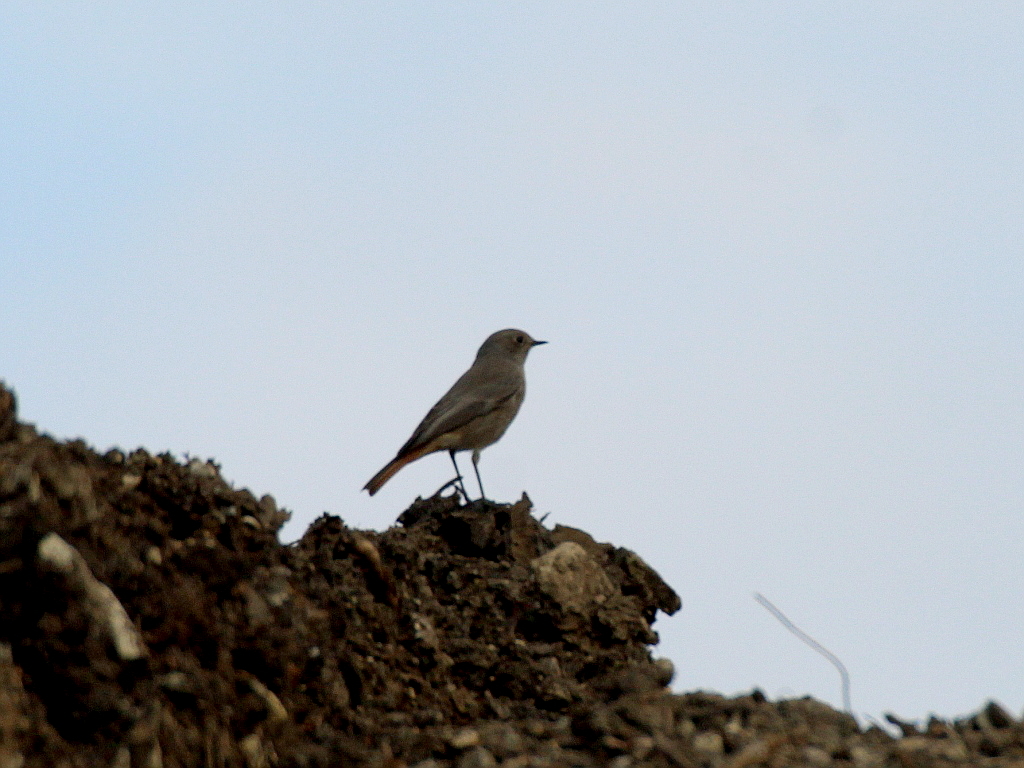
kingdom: Animalia
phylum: Chordata
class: Aves
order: Passeriformes
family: Muscicapidae
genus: Phoenicurus
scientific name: Phoenicurus ochruros
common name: Black redstart
